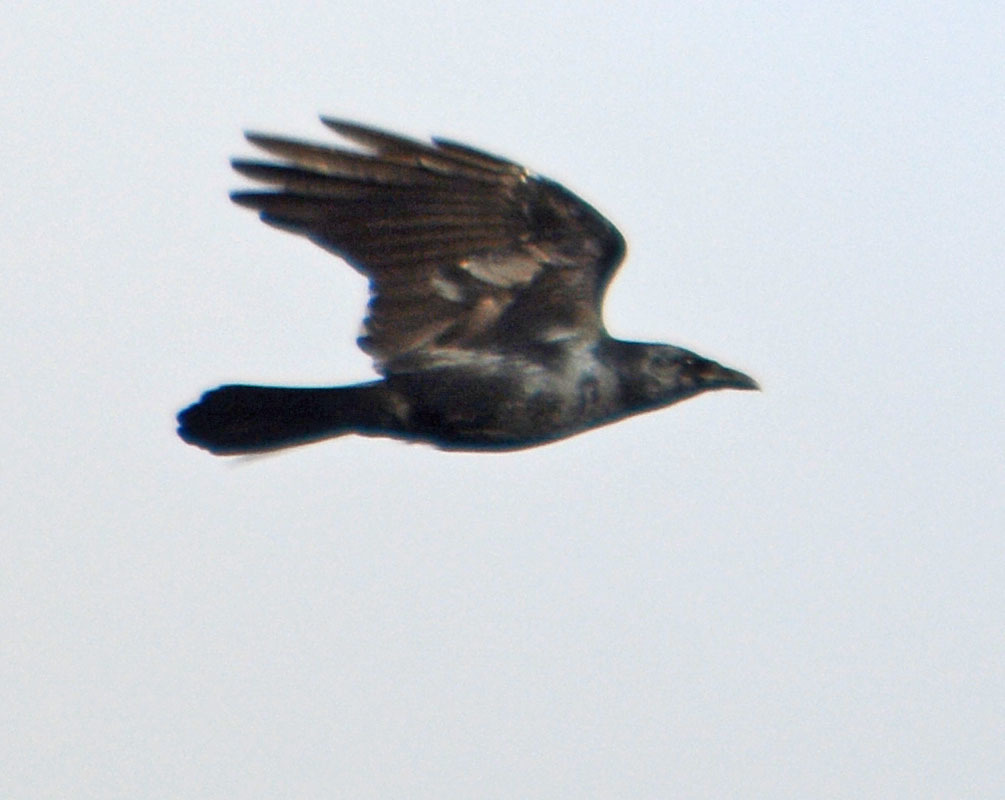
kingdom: Animalia
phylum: Chordata
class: Aves
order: Passeriformes
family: Corvidae
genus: Corvus
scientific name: Corvus
